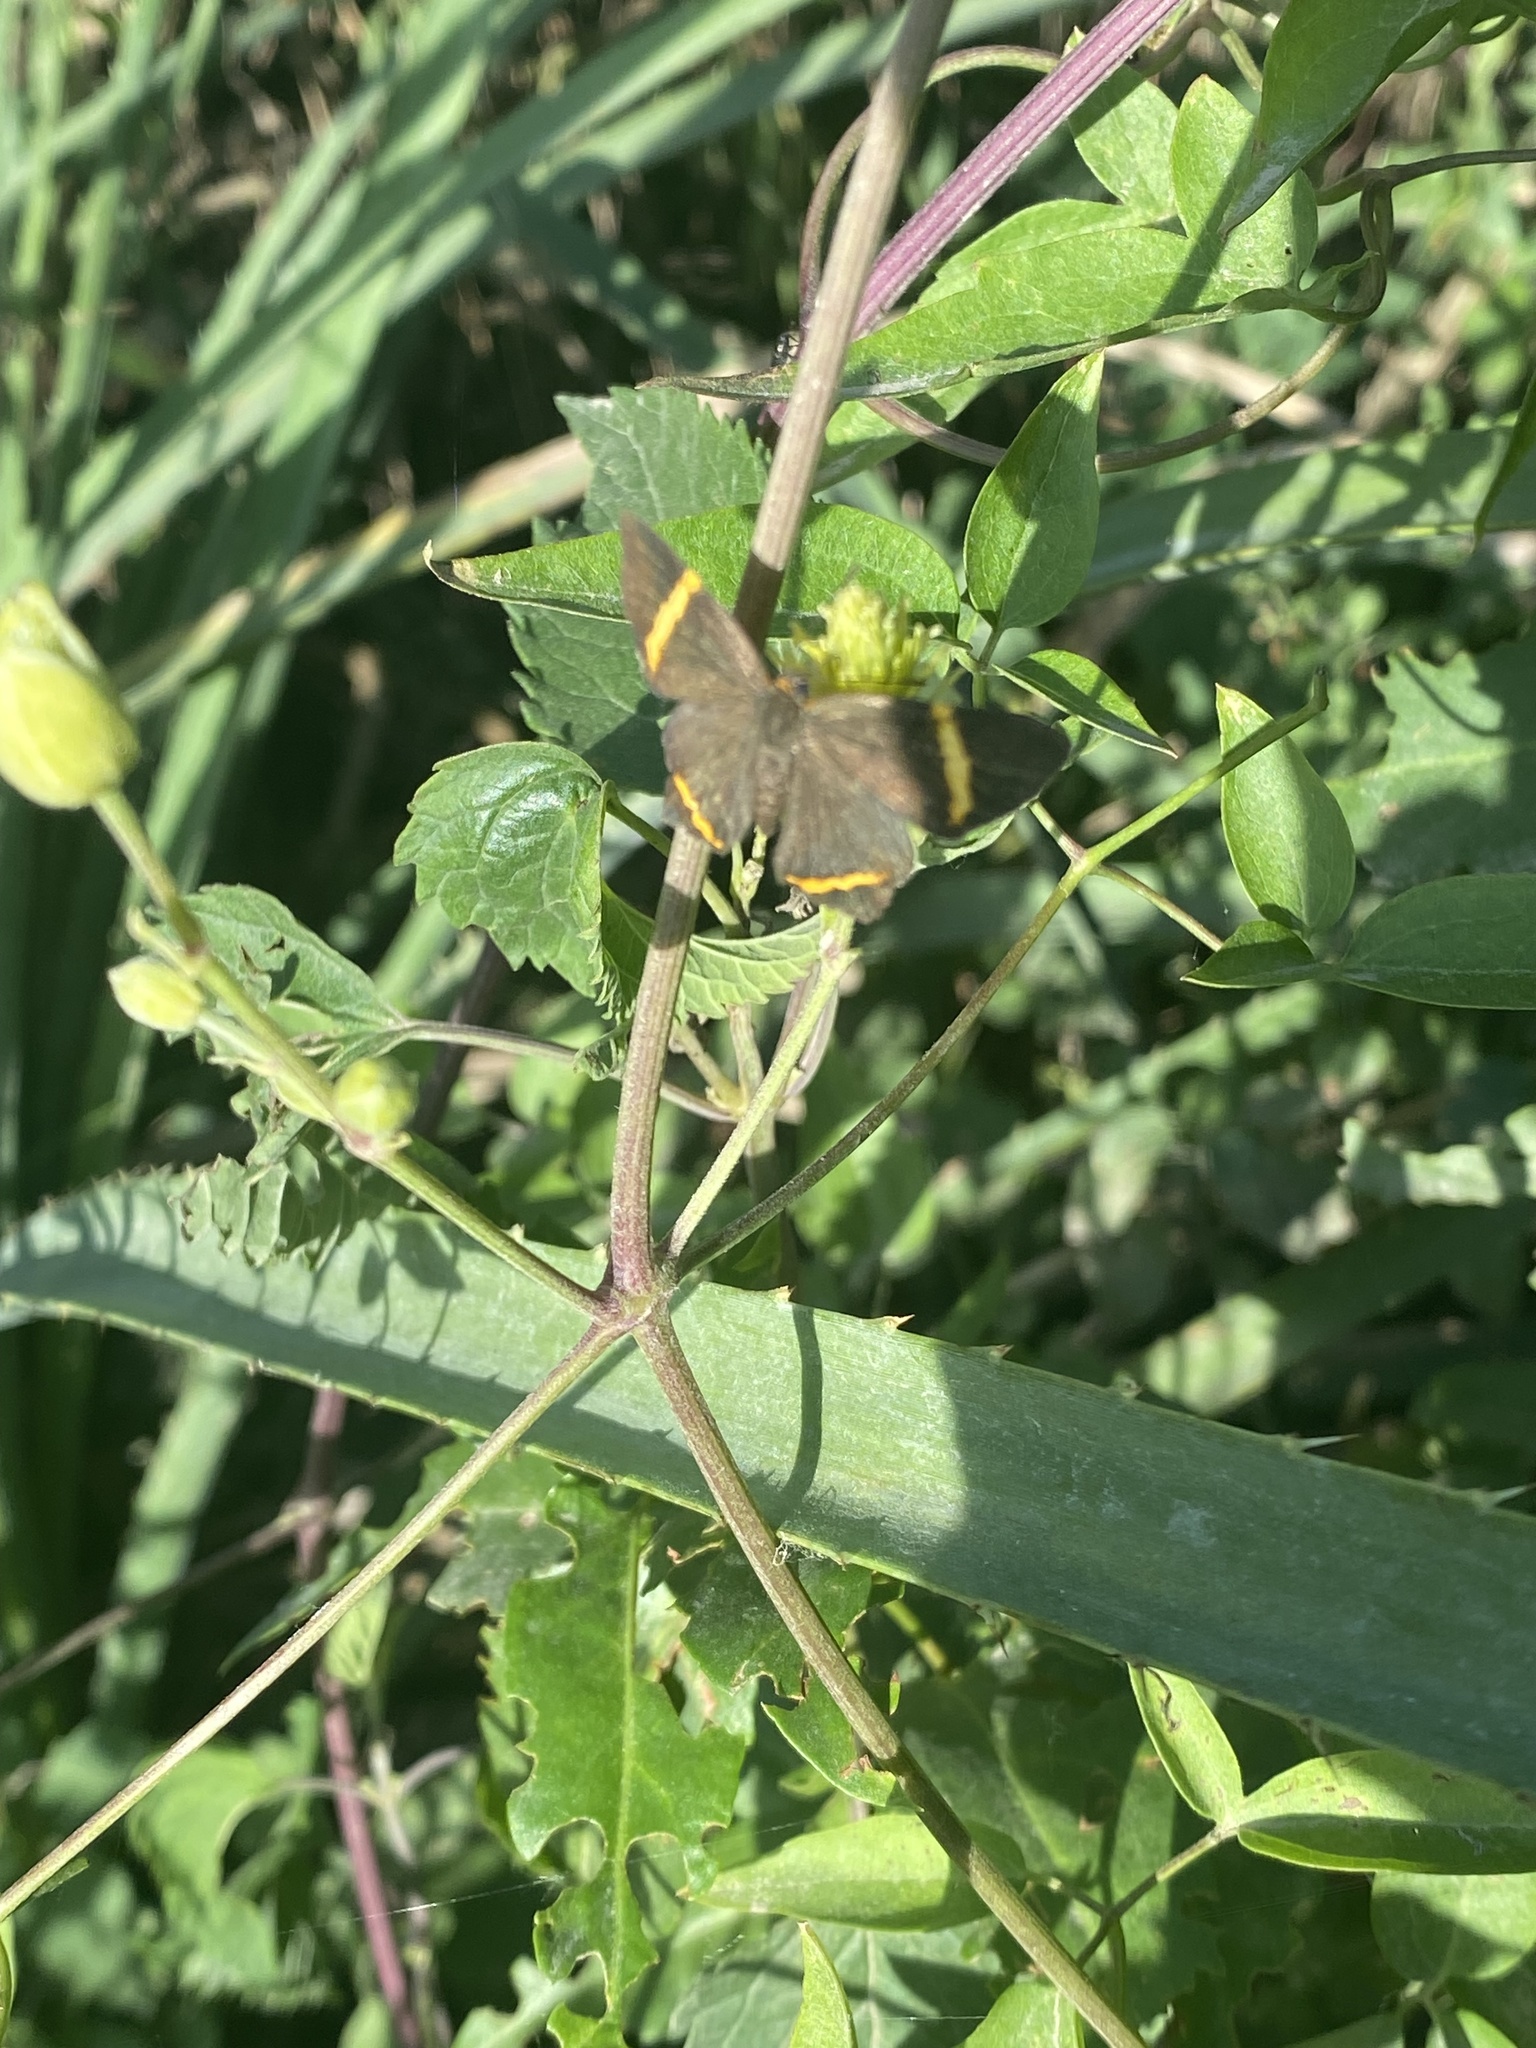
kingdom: Animalia
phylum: Arthropoda
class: Insecta
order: Lepidoptera
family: Riodinidae
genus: Riodina
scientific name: Riodina lysippoides
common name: Little dancer metalmark
